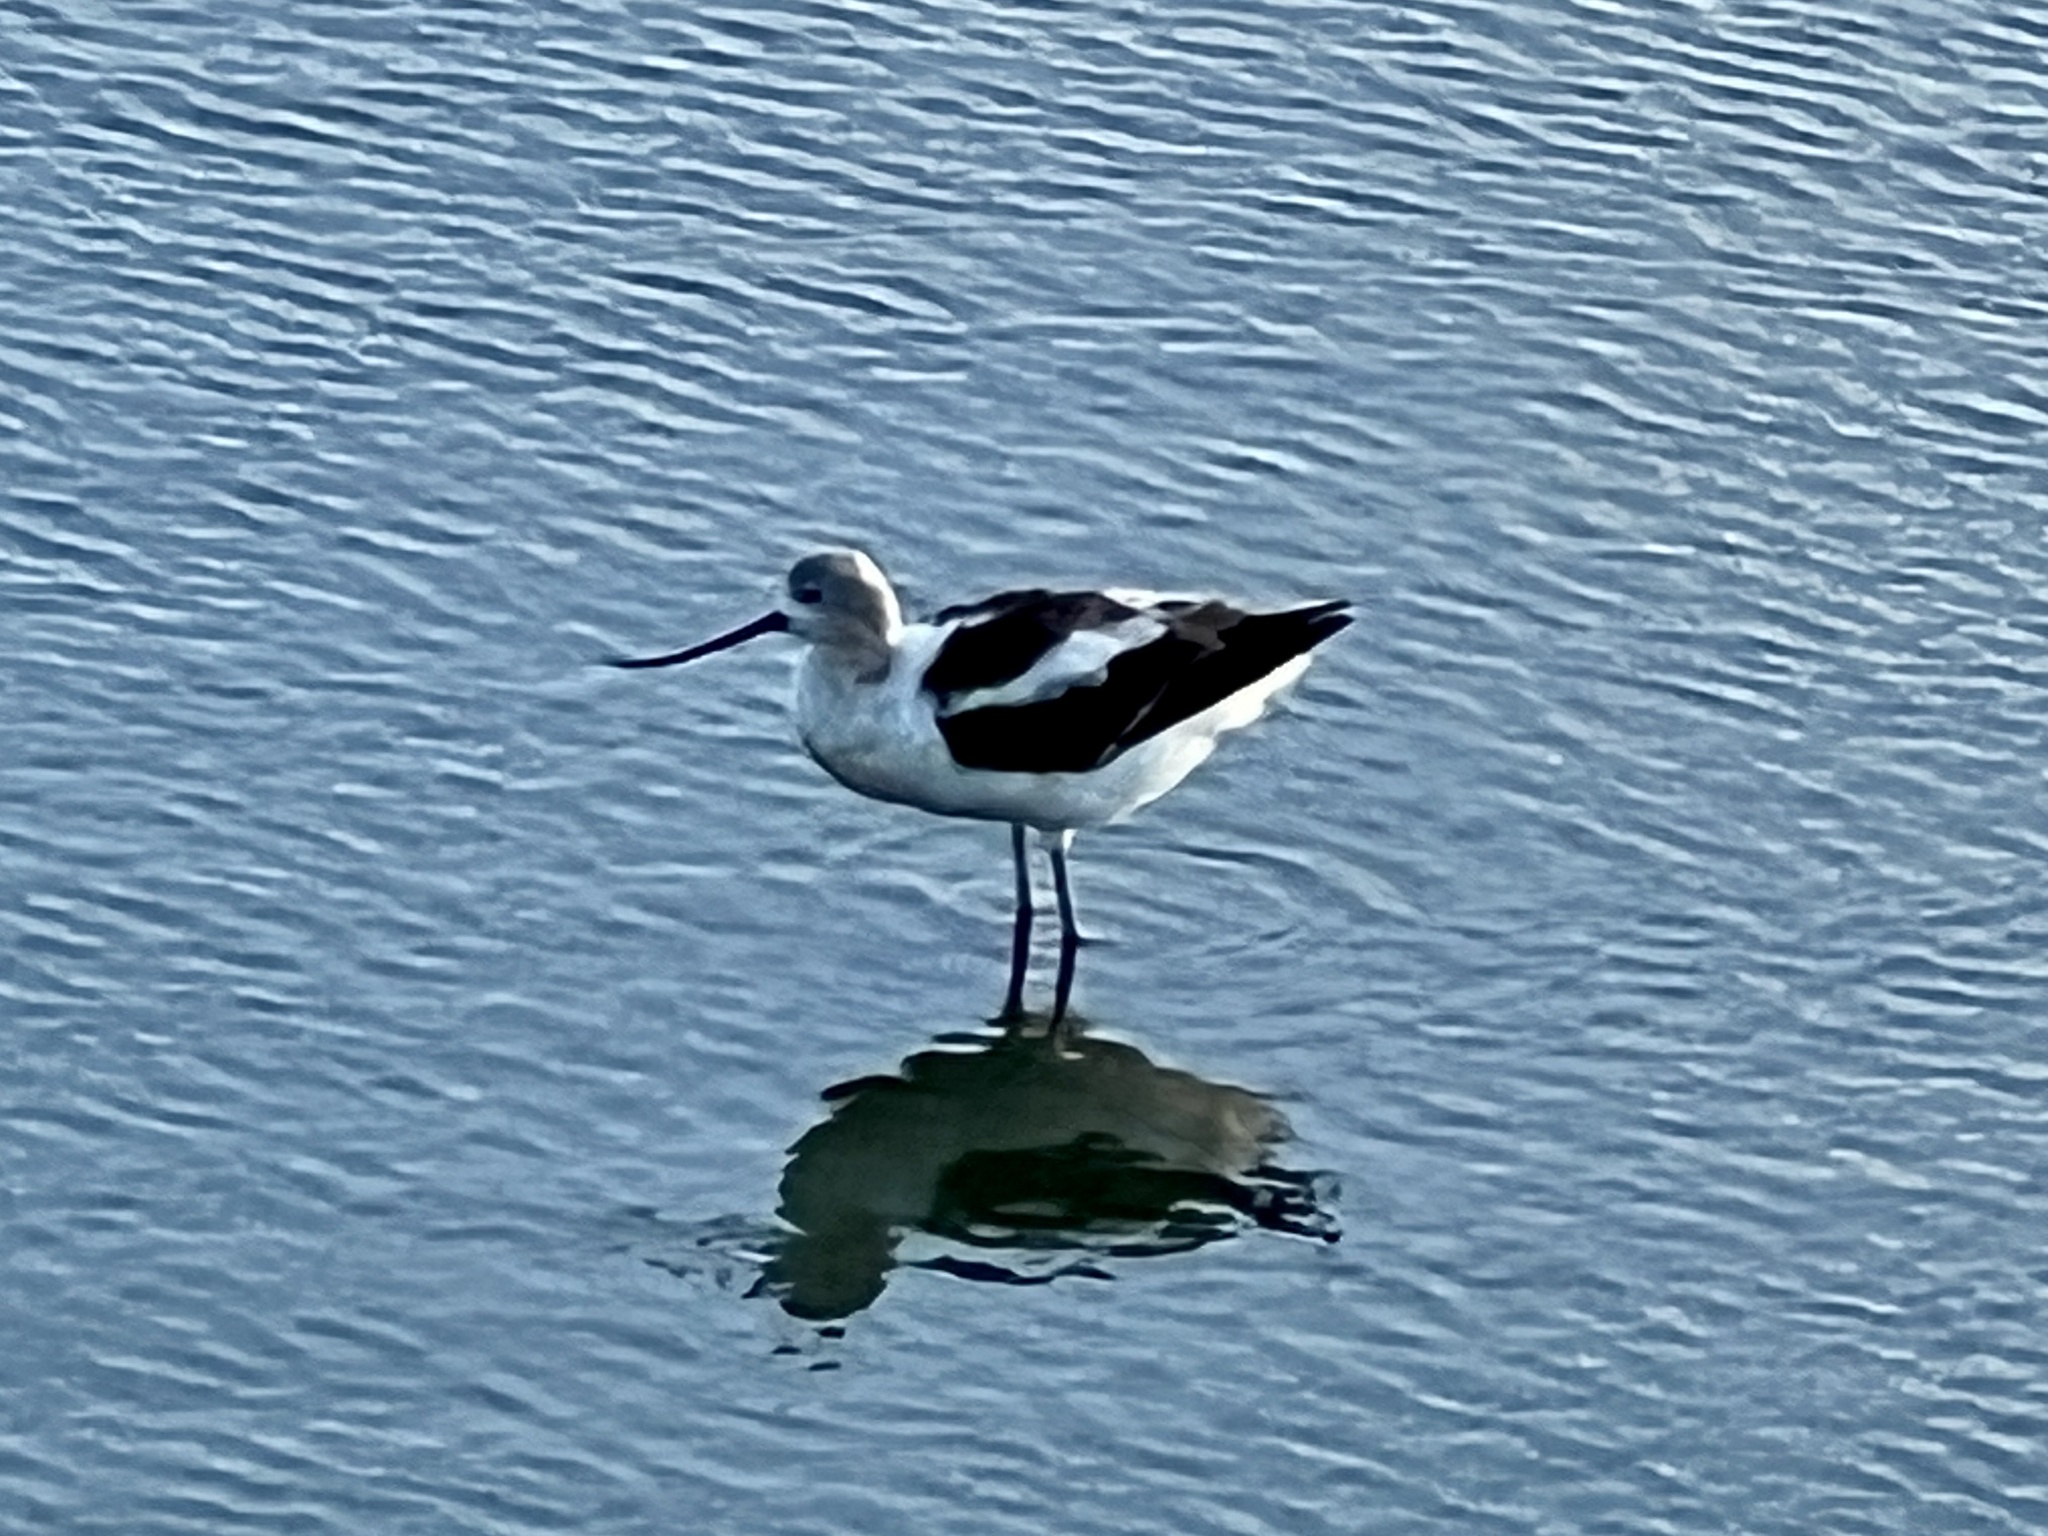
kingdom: Animalia
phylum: Chordata
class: Aves
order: Charadriiformes
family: Recurvirostridae
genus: Recurvirostra
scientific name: Recurvirostra americana
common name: American avocet
